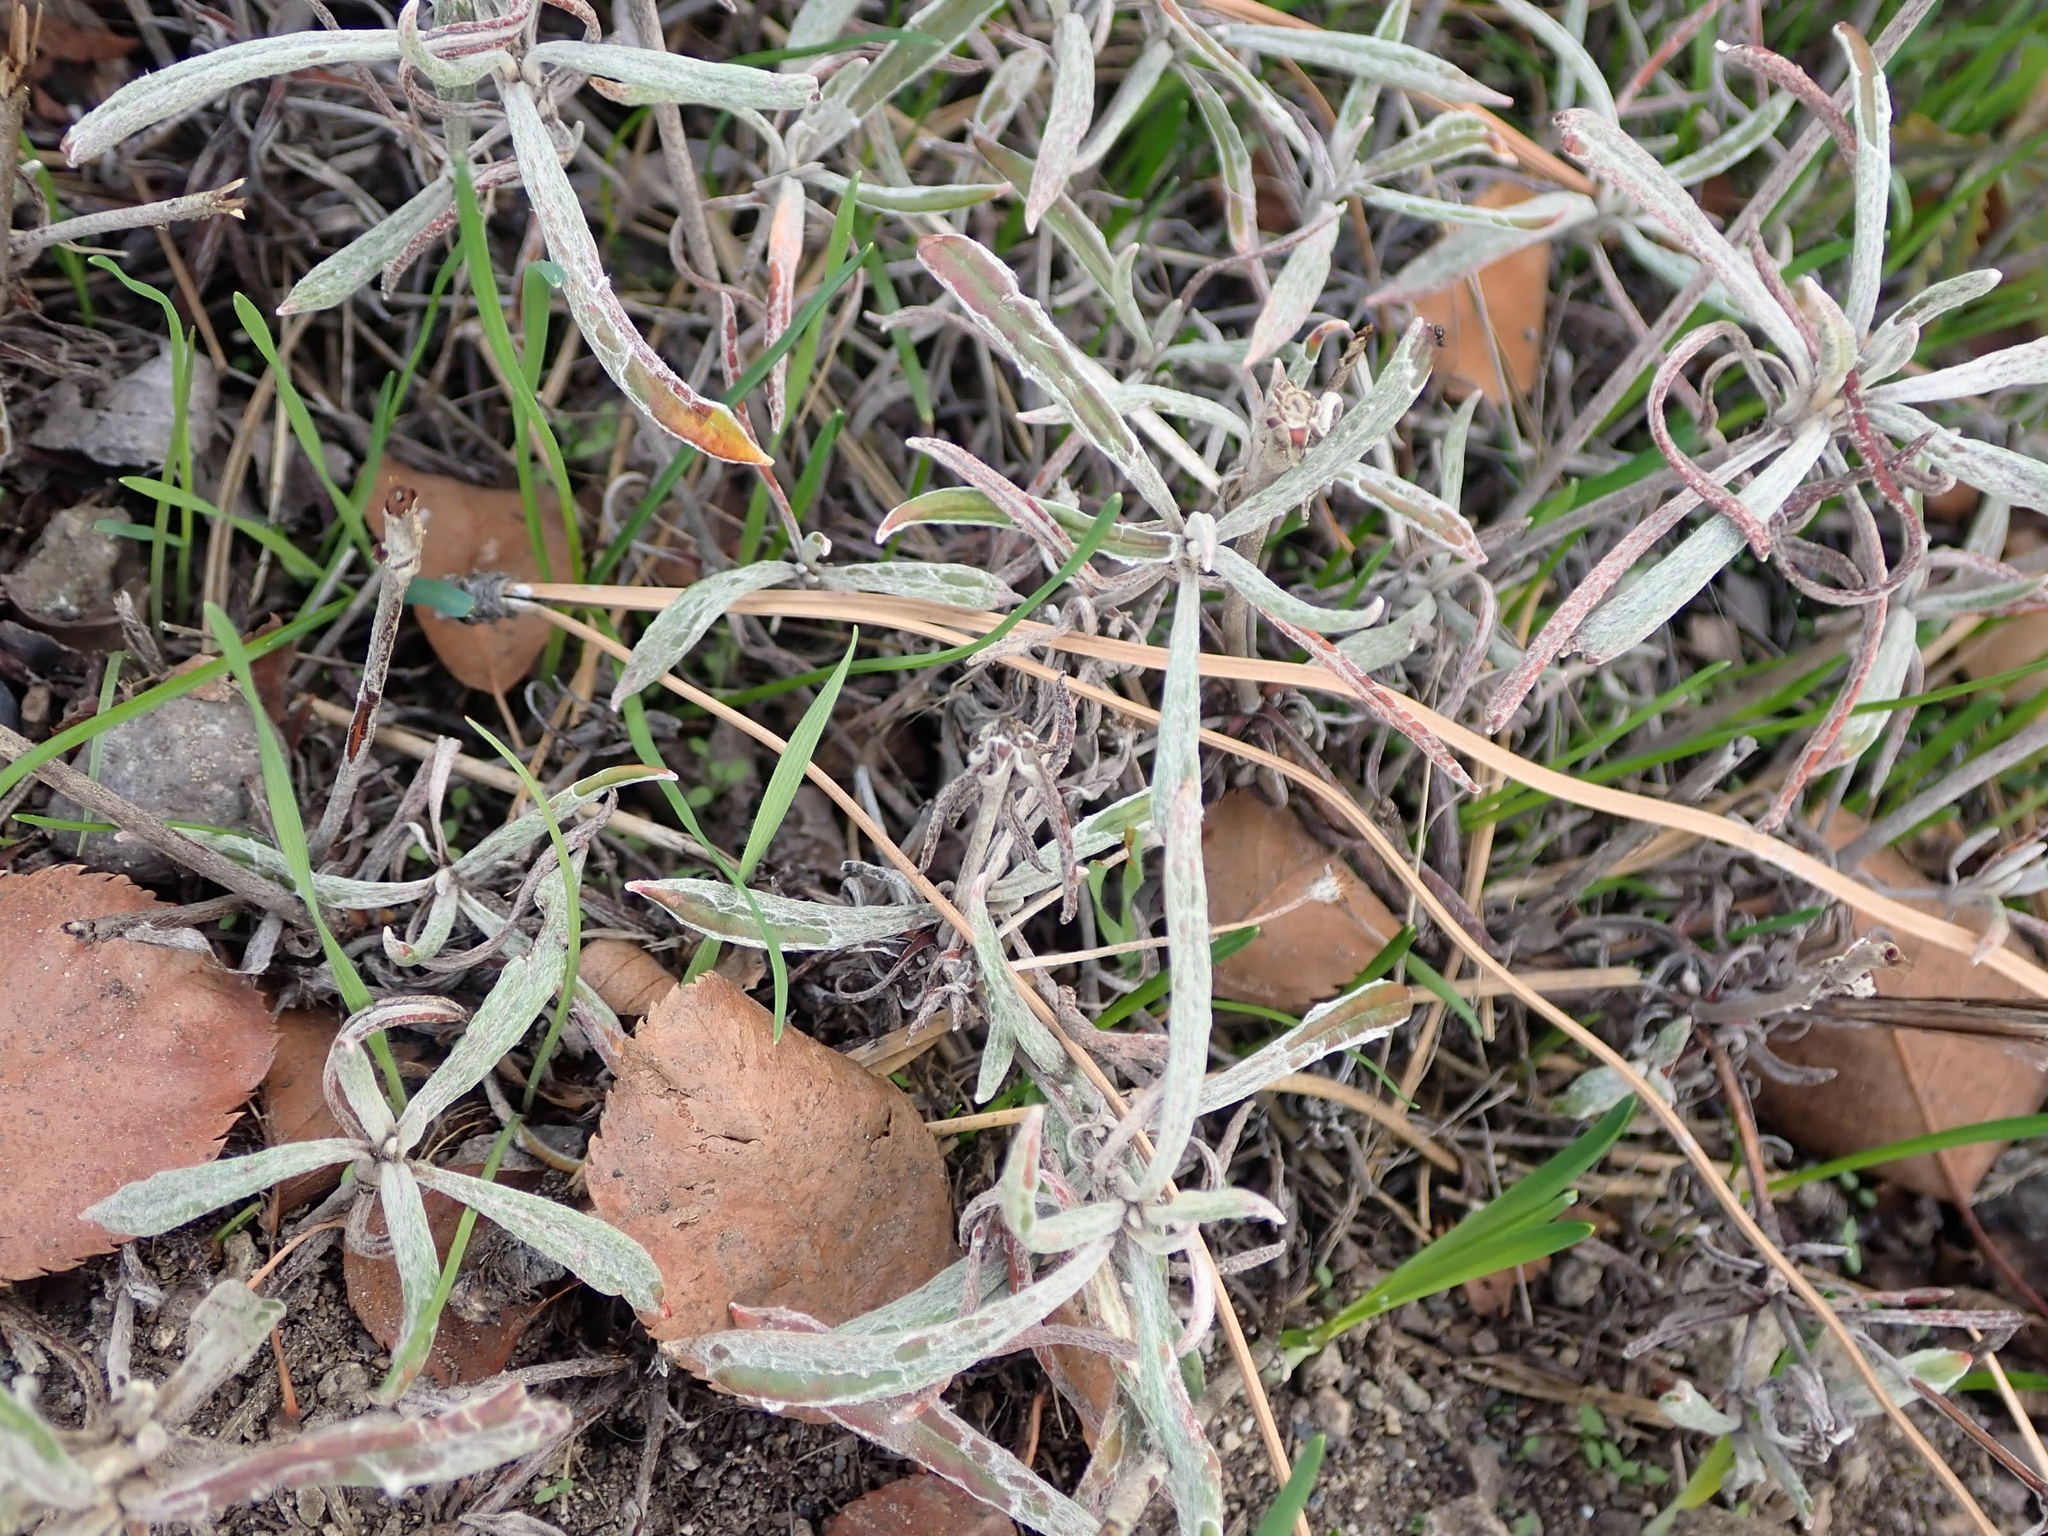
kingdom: Plantae
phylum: Tracheophyta
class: Magnoliopsida
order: Caryophyllales
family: Polygonaceae
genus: Eriogonum
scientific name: Eriogonum heracleoides
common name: Wyeth's buckwheat
